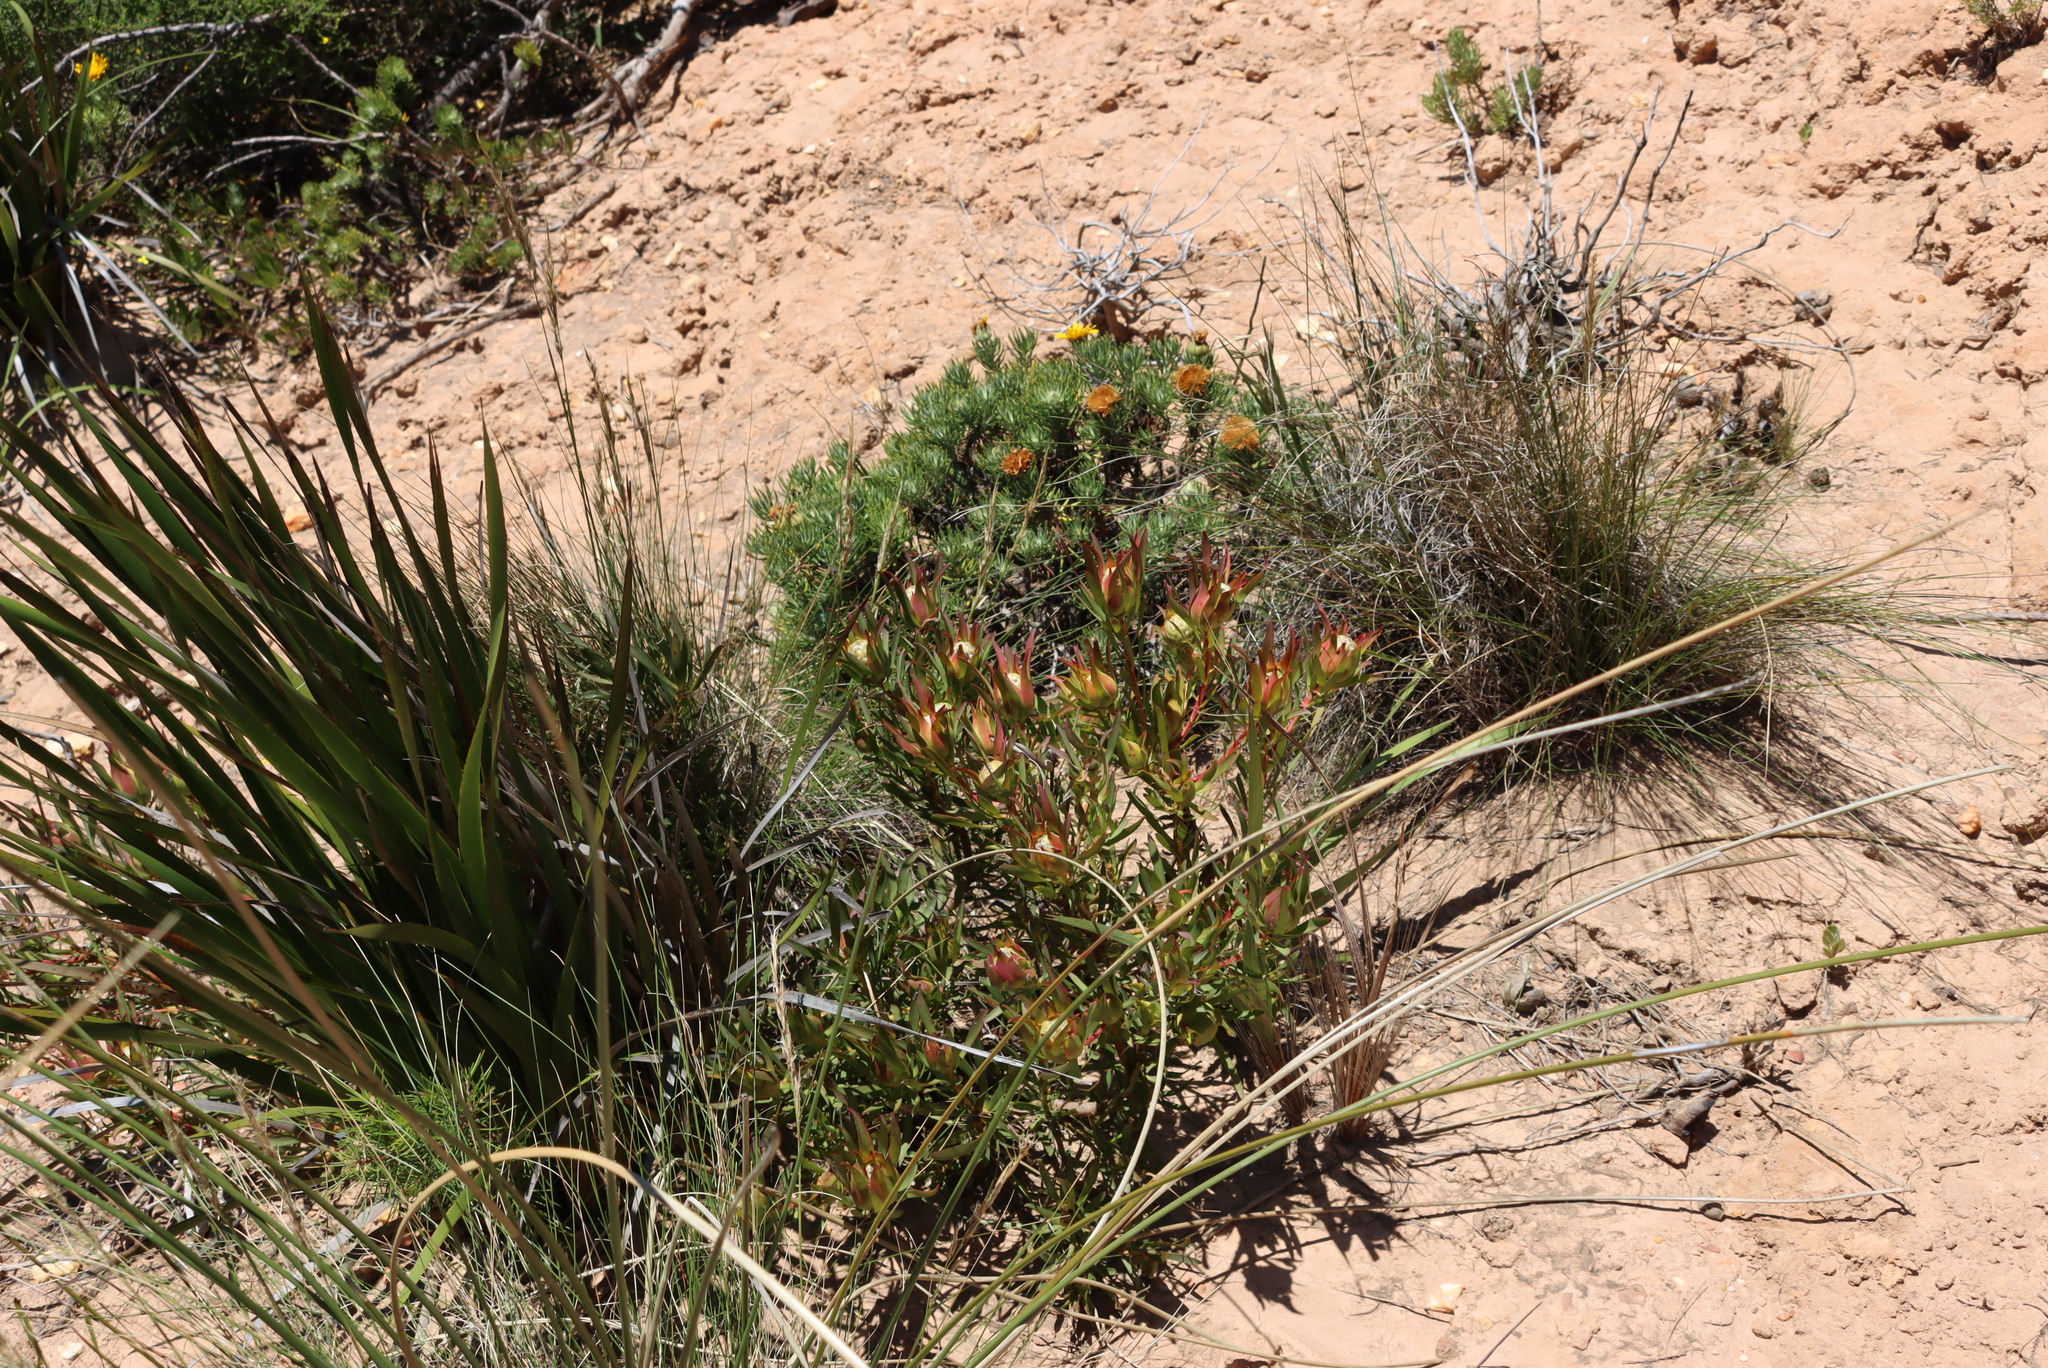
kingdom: Plantae
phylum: Tracheophyta
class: Magnoliopsida
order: Proteales
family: Proteaceae
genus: Leucadendron
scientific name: Leucadendron salignum
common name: Common sunshine conebush
